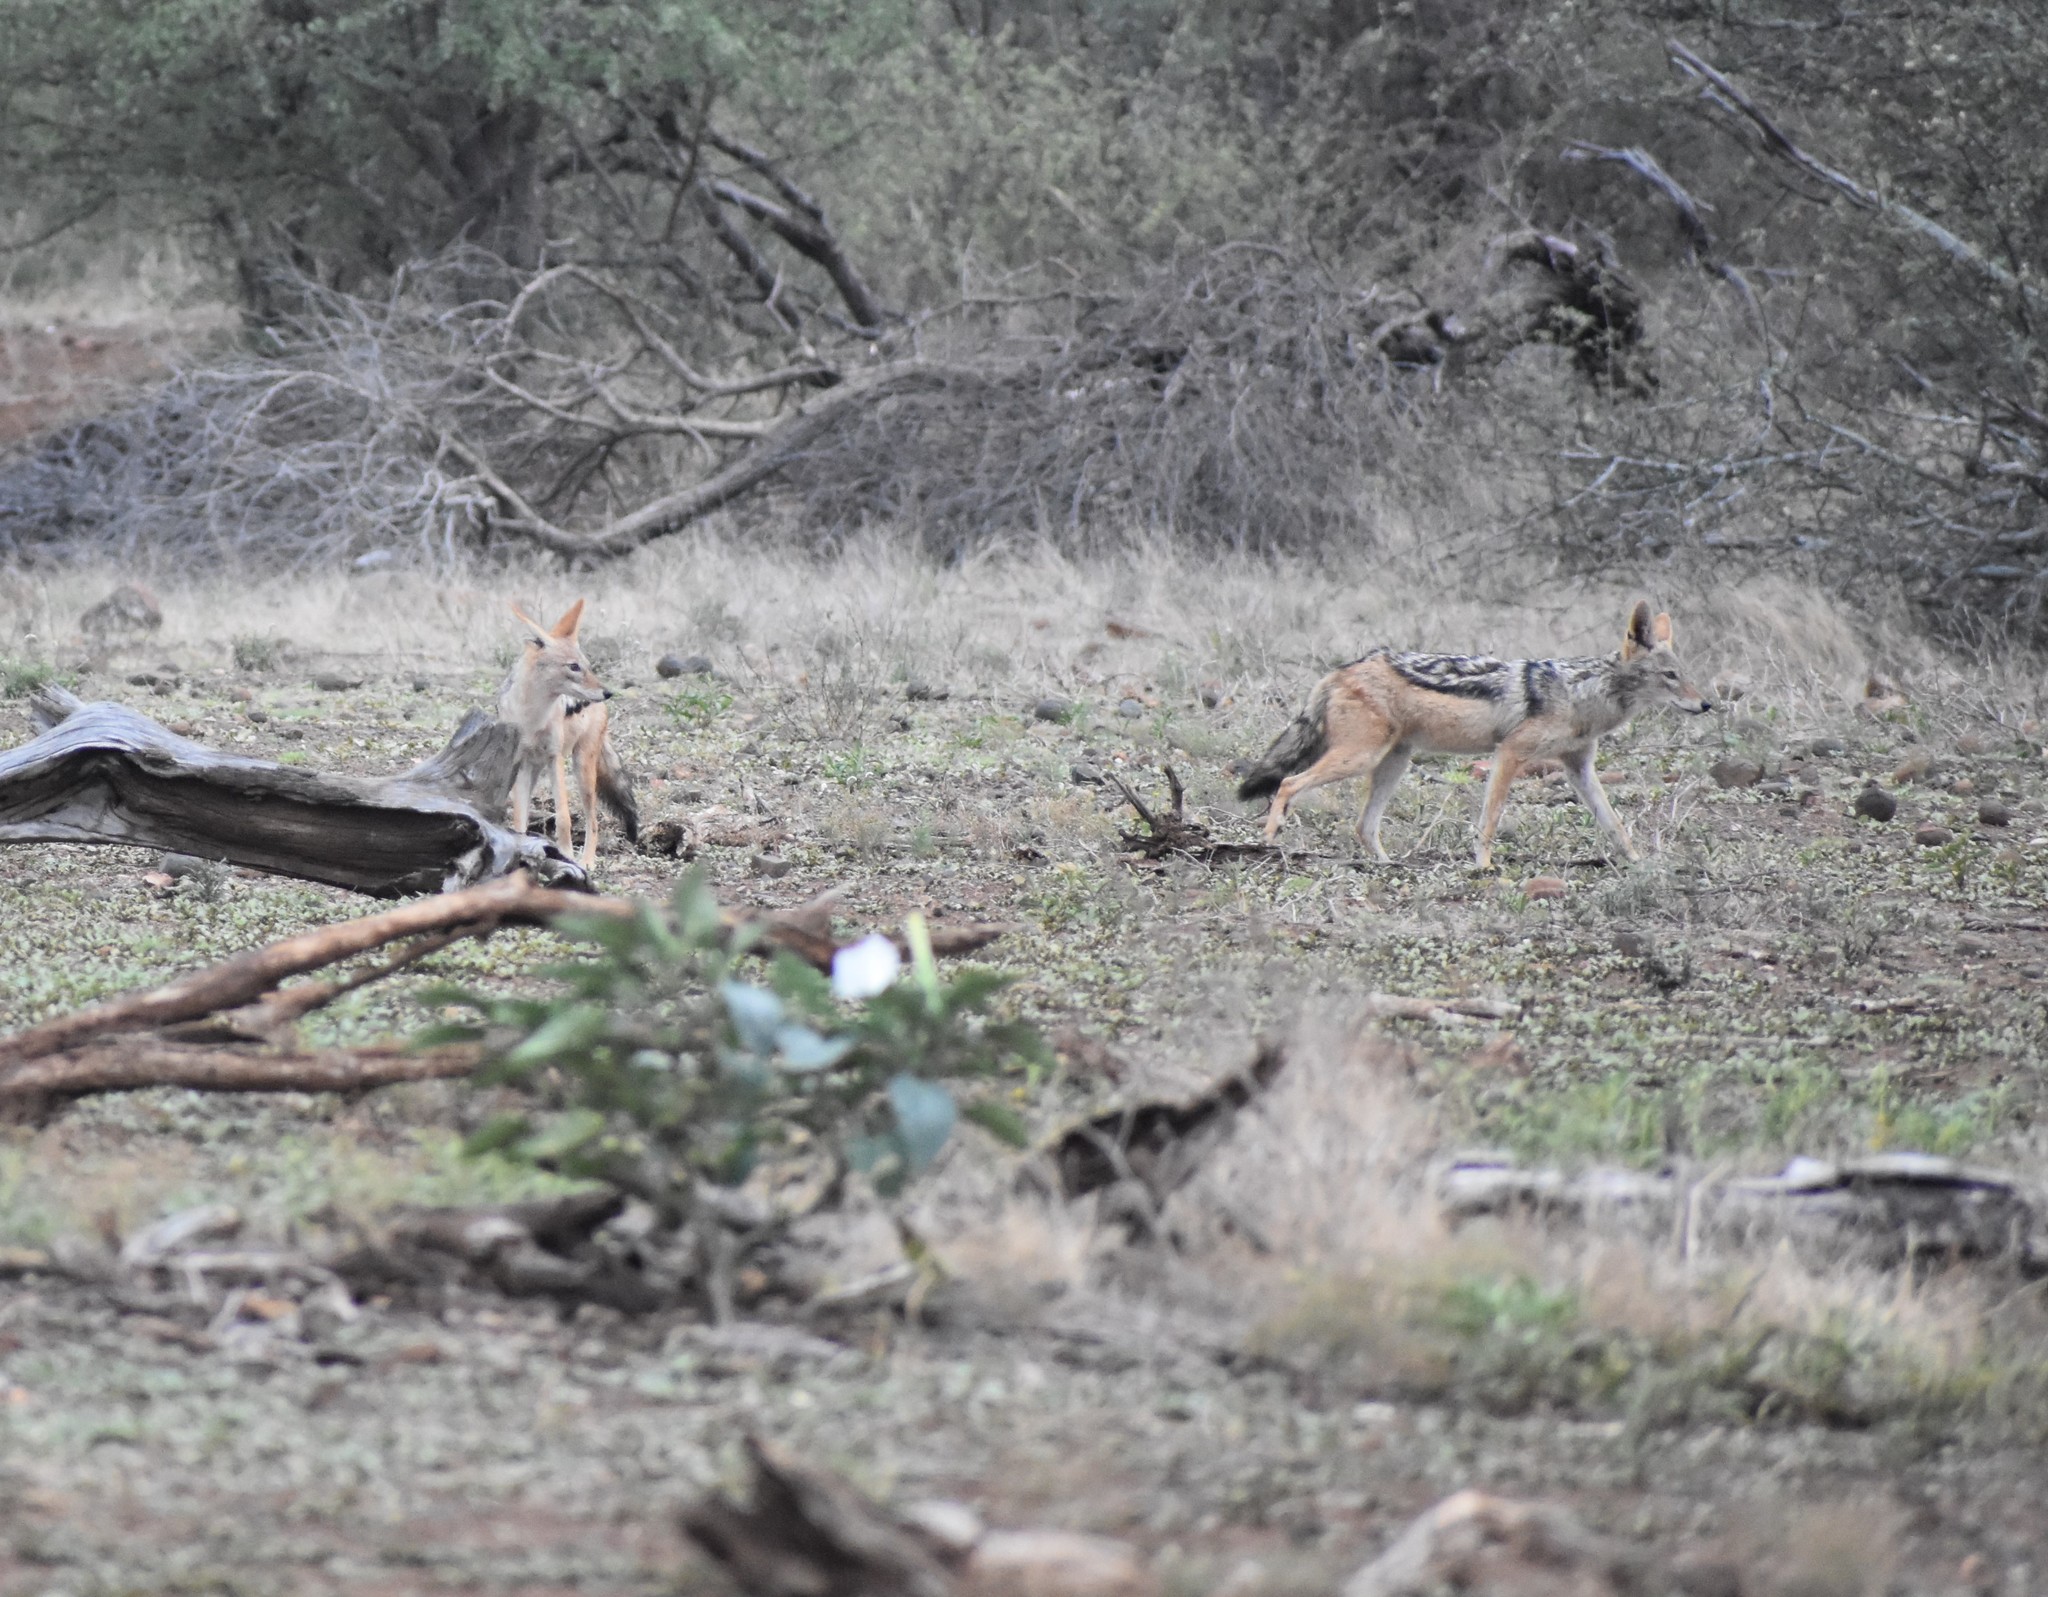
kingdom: Animalia
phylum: Chordata
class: Mammalia
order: Carnivora
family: Canidae
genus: Lupulella
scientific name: Lupulella
